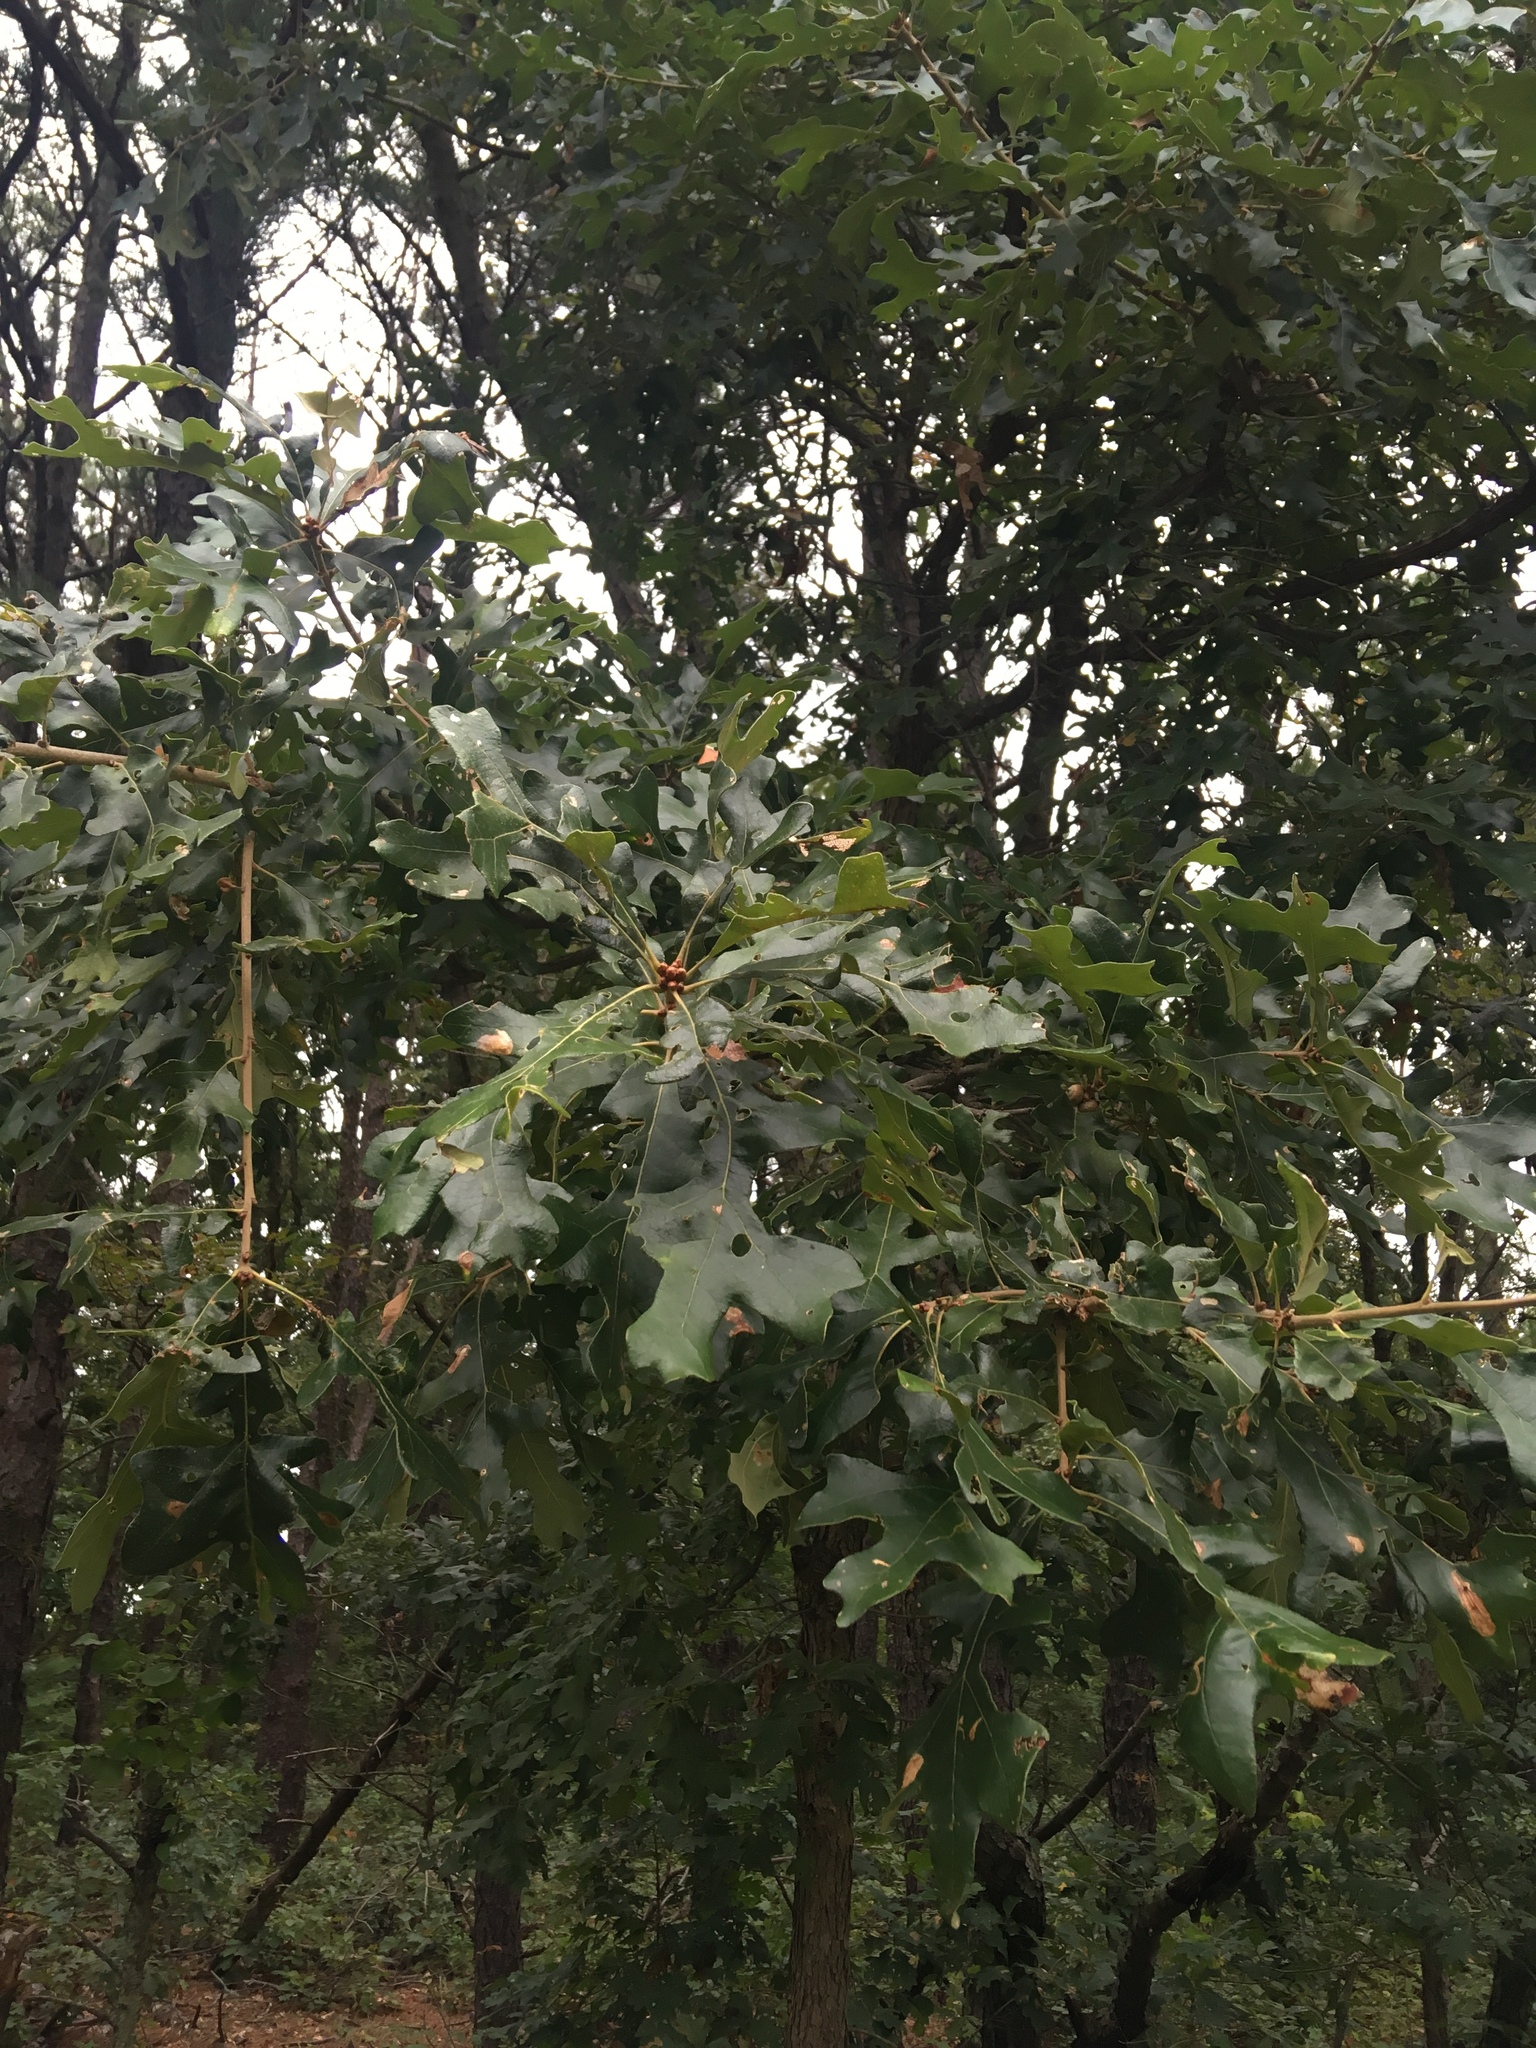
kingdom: Plantae
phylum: Tracheophyta
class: Magnoliopsida
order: Fagales
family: Fagaceae
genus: Quercus
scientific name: Quercus stellata
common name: Post oak
